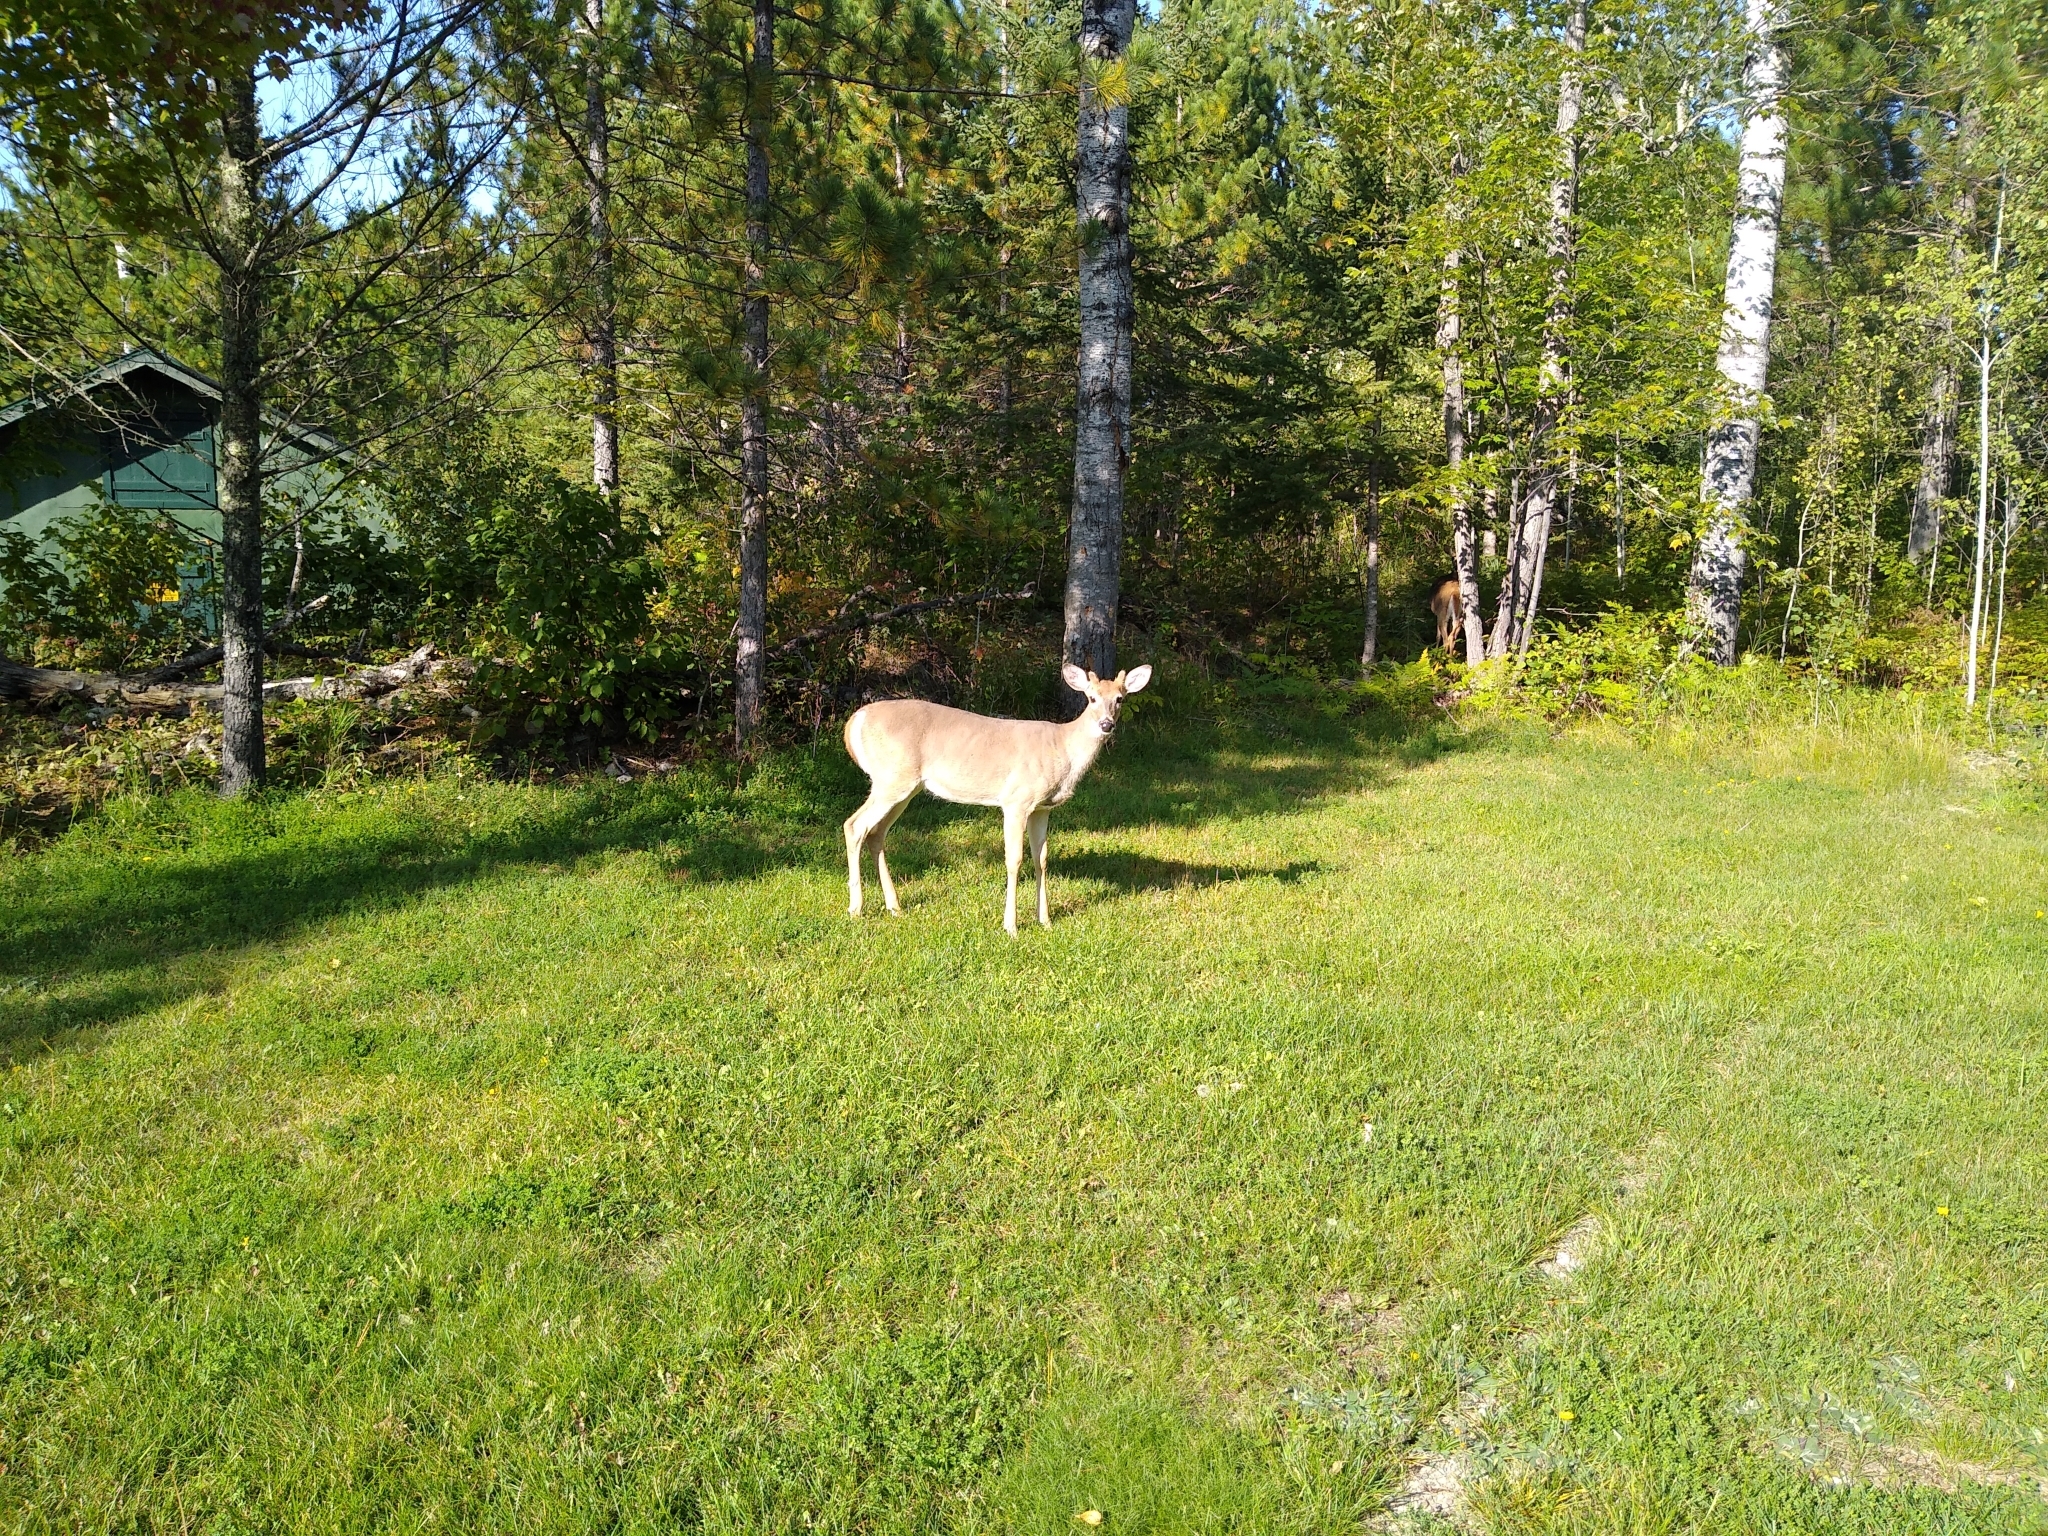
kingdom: Animalia
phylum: Chordata
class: Mammalia
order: Artiodactyla
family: Cervidae
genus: Odocoileus
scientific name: Odocoileus virginianus
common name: White-tailed deer
